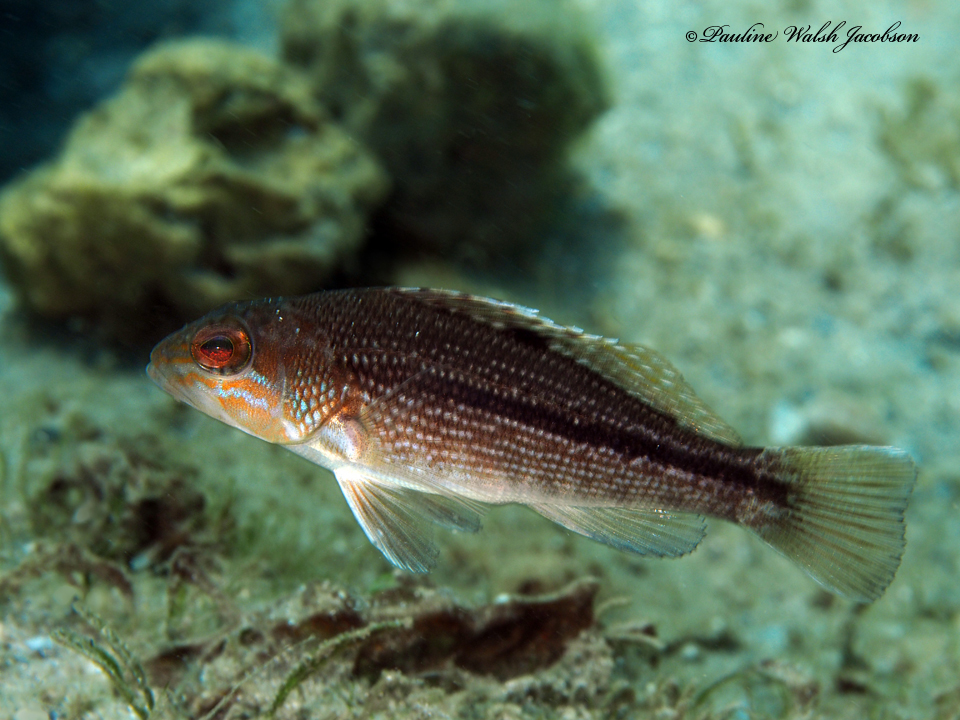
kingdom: Animalia
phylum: Chordata
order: Perciformes
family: Serranidae
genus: Centropristis
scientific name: Centropristis striata
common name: Black sea bass
